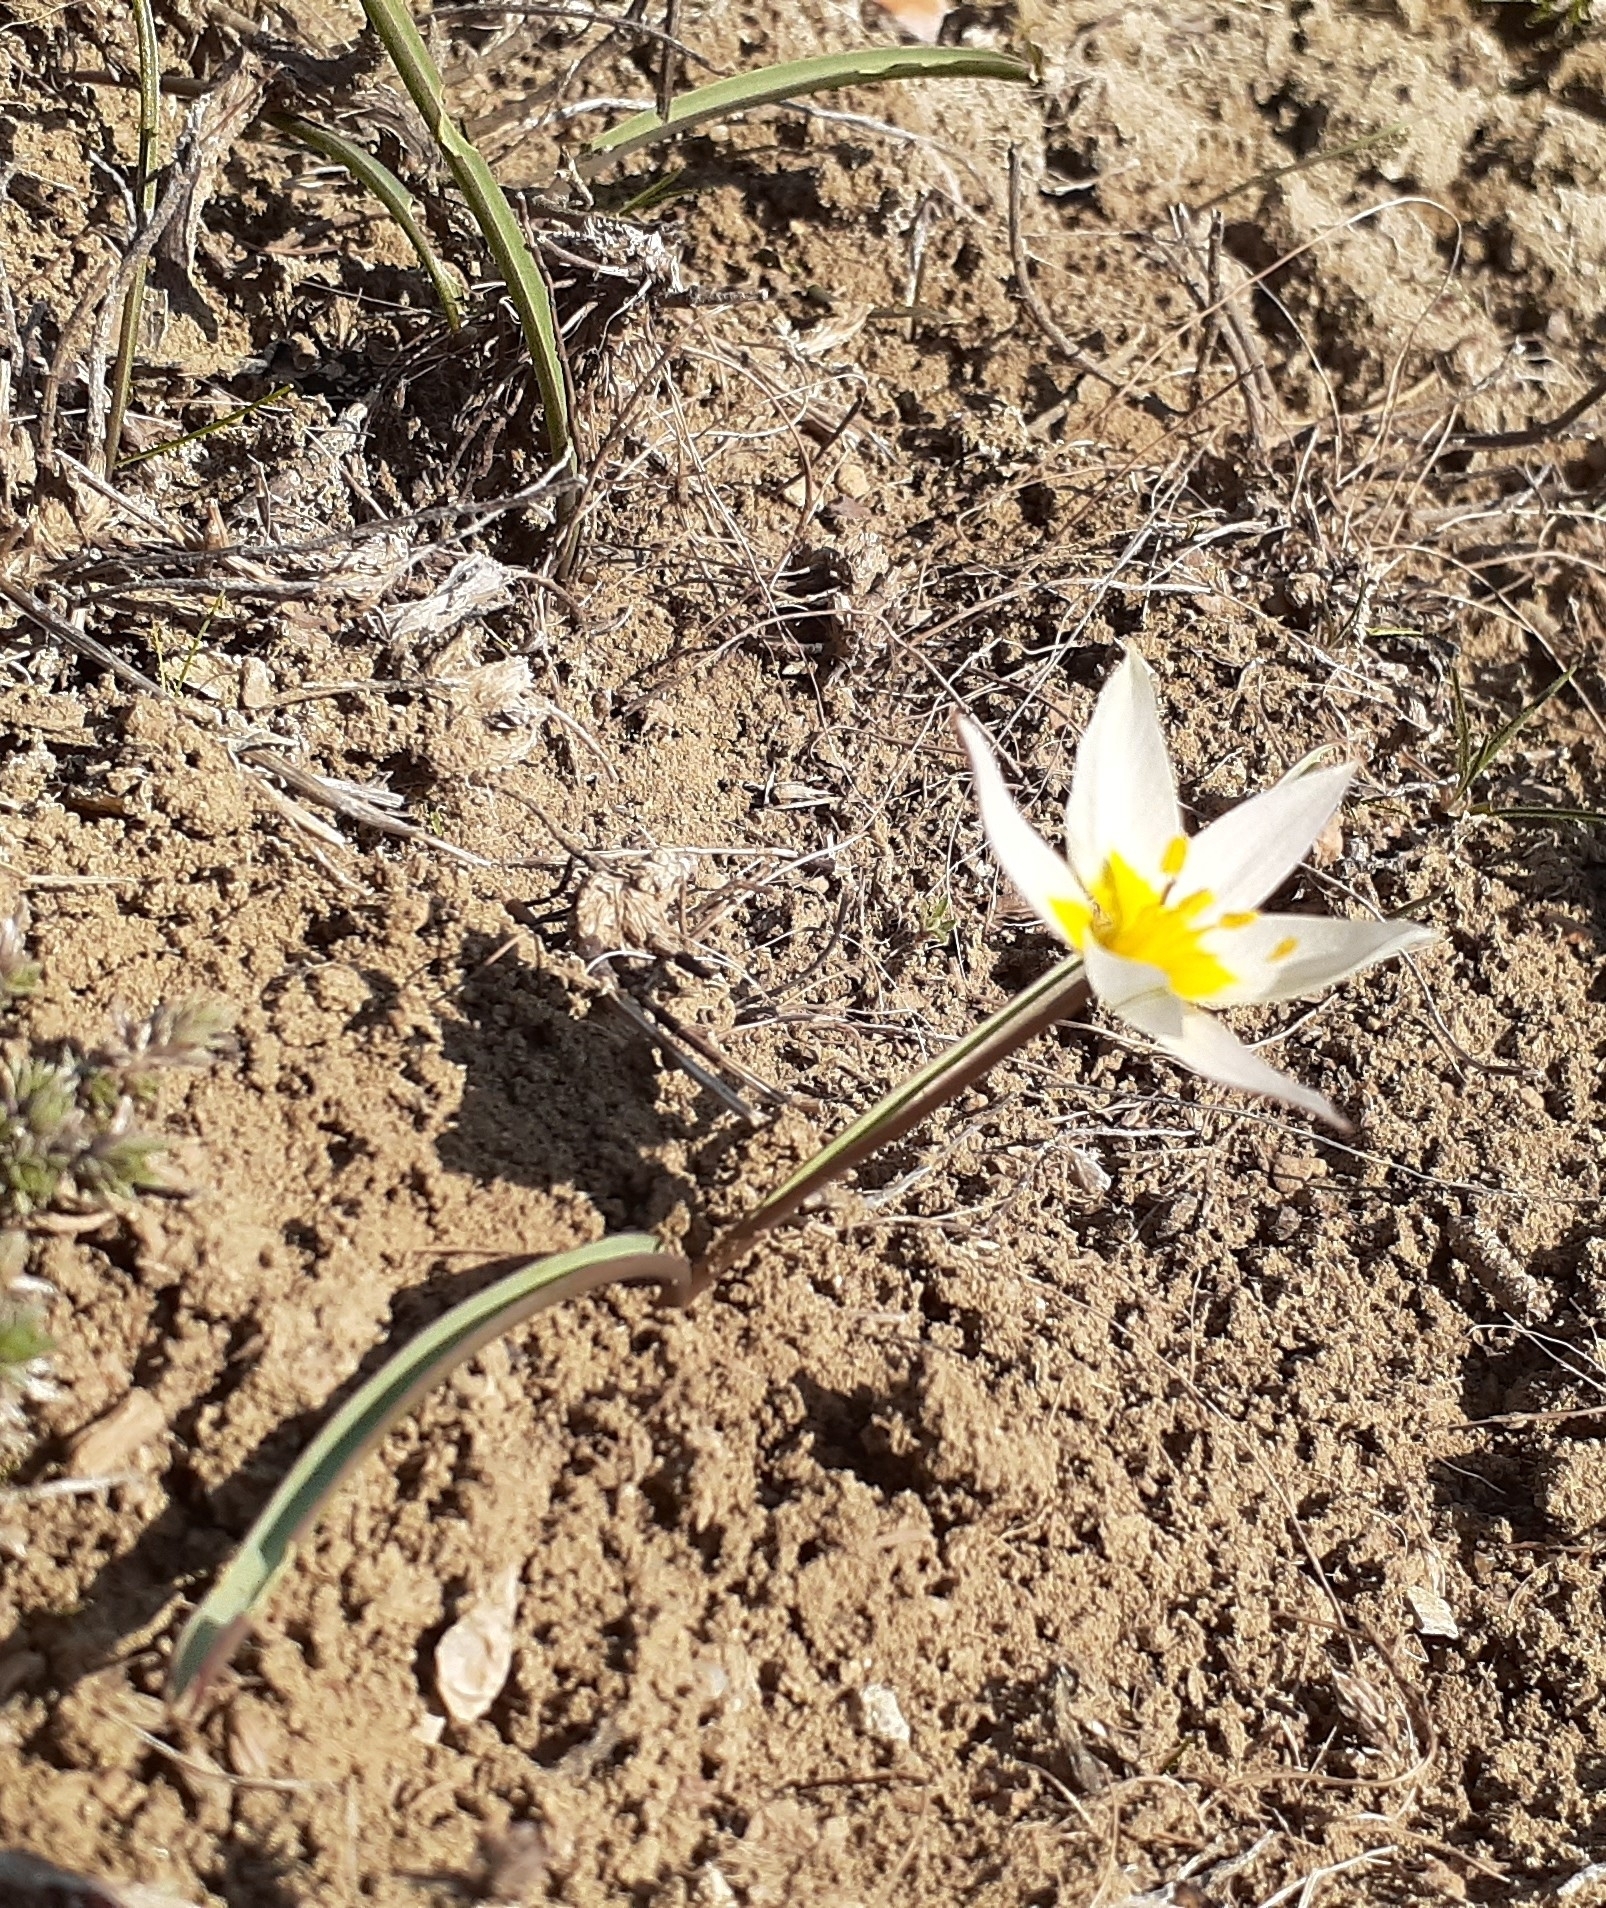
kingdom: Plantae
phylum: Tracheophyta
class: Liliopsida
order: Liliales
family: Liliaceae
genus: Tulipa
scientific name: Tulipa biflora
